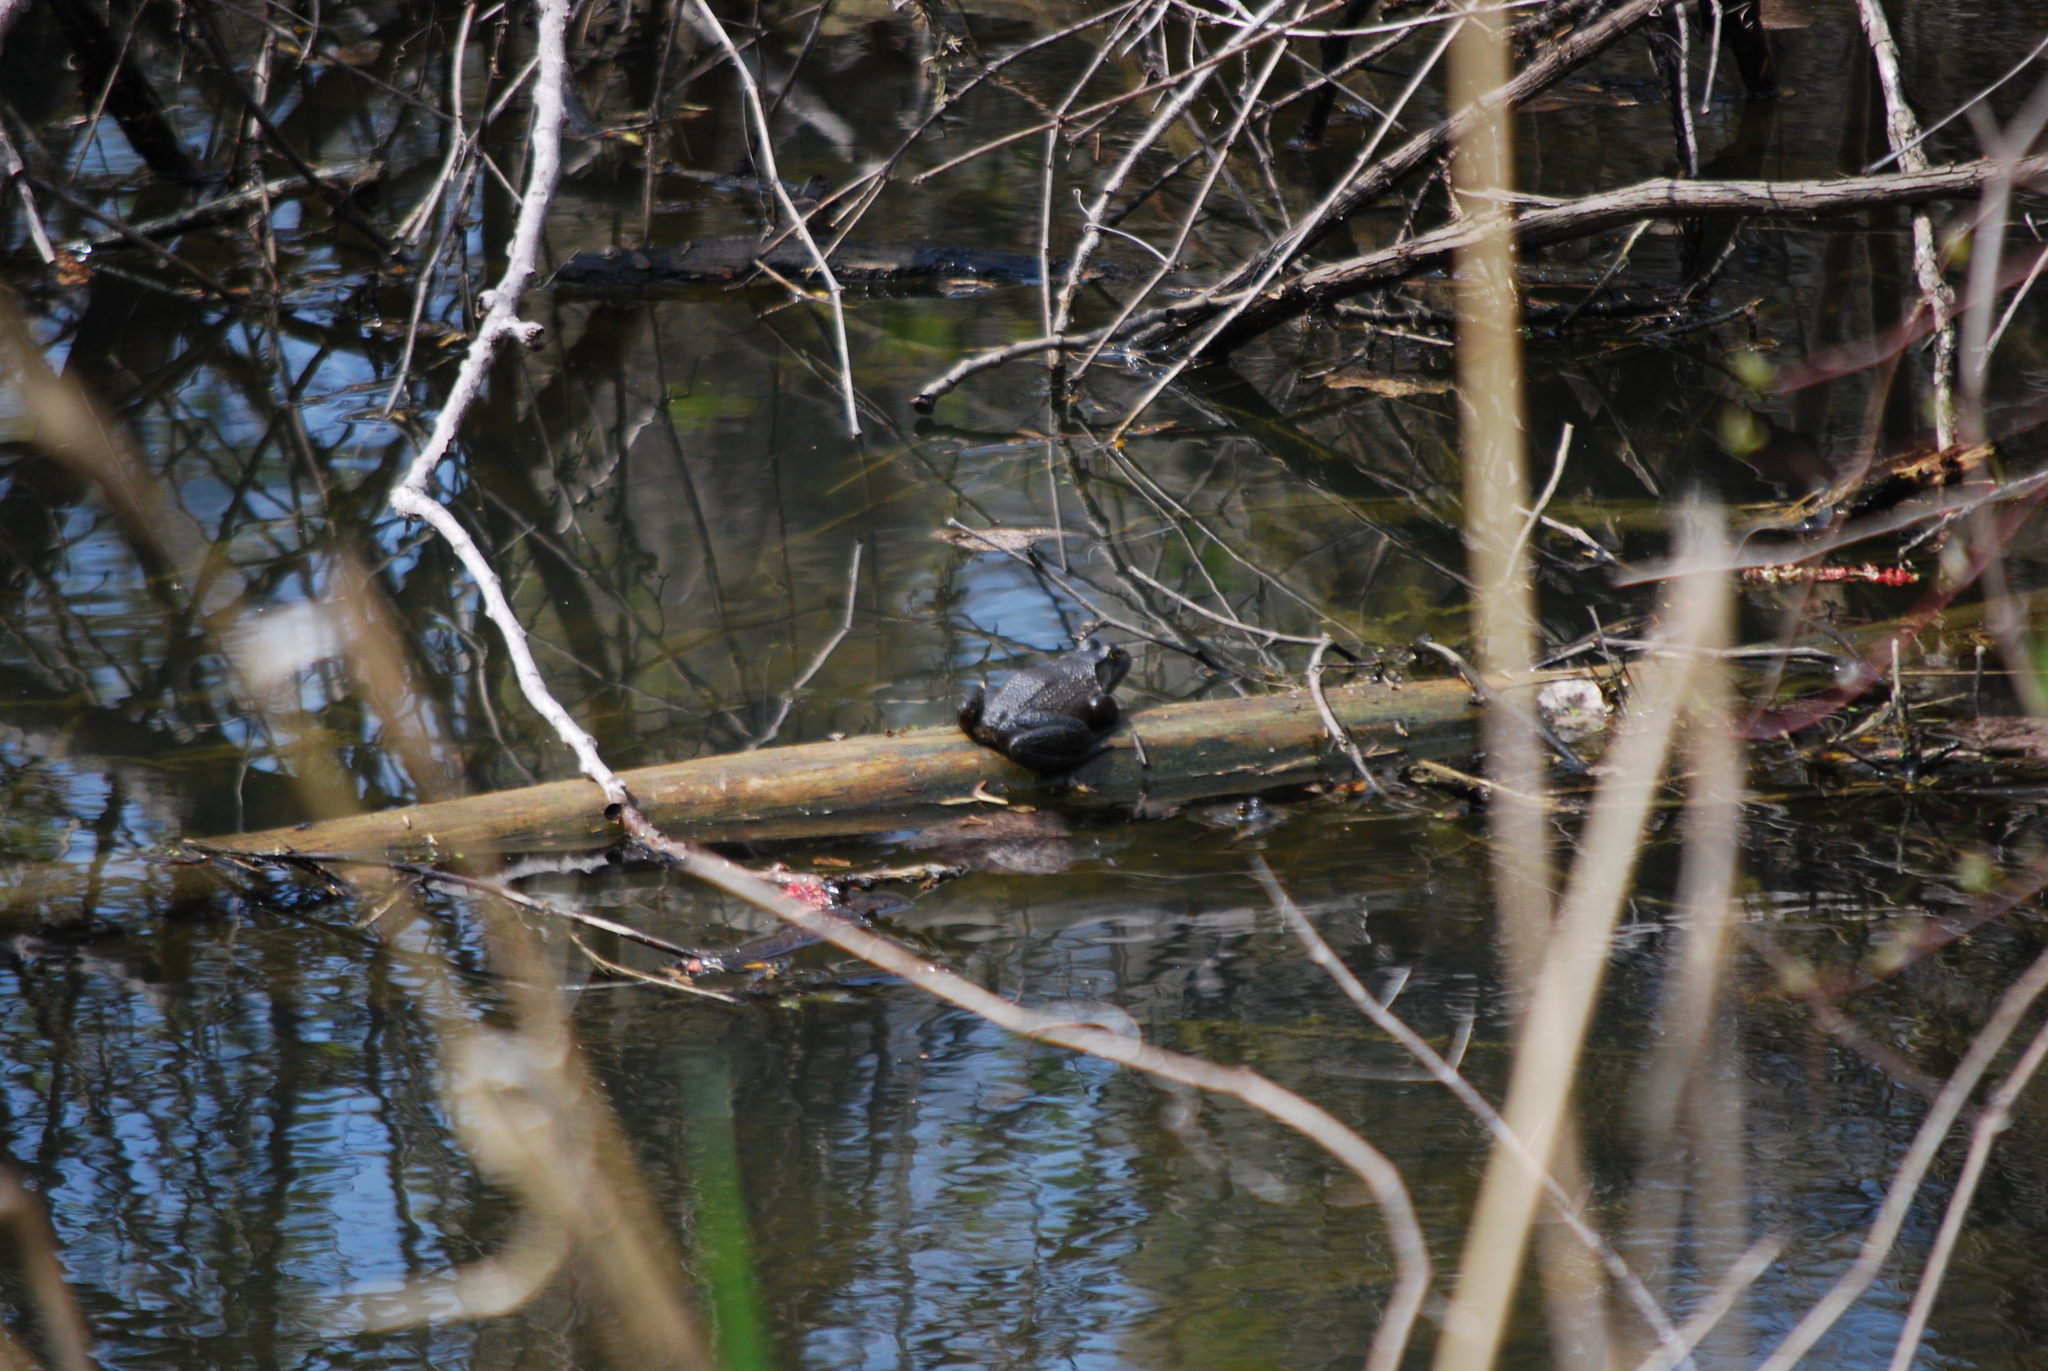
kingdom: Animalia
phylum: Chordata
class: Amphibia
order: Anura
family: Ranidae
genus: Lithobates
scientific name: Lithobates catesbeianus
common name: American bullfrog
